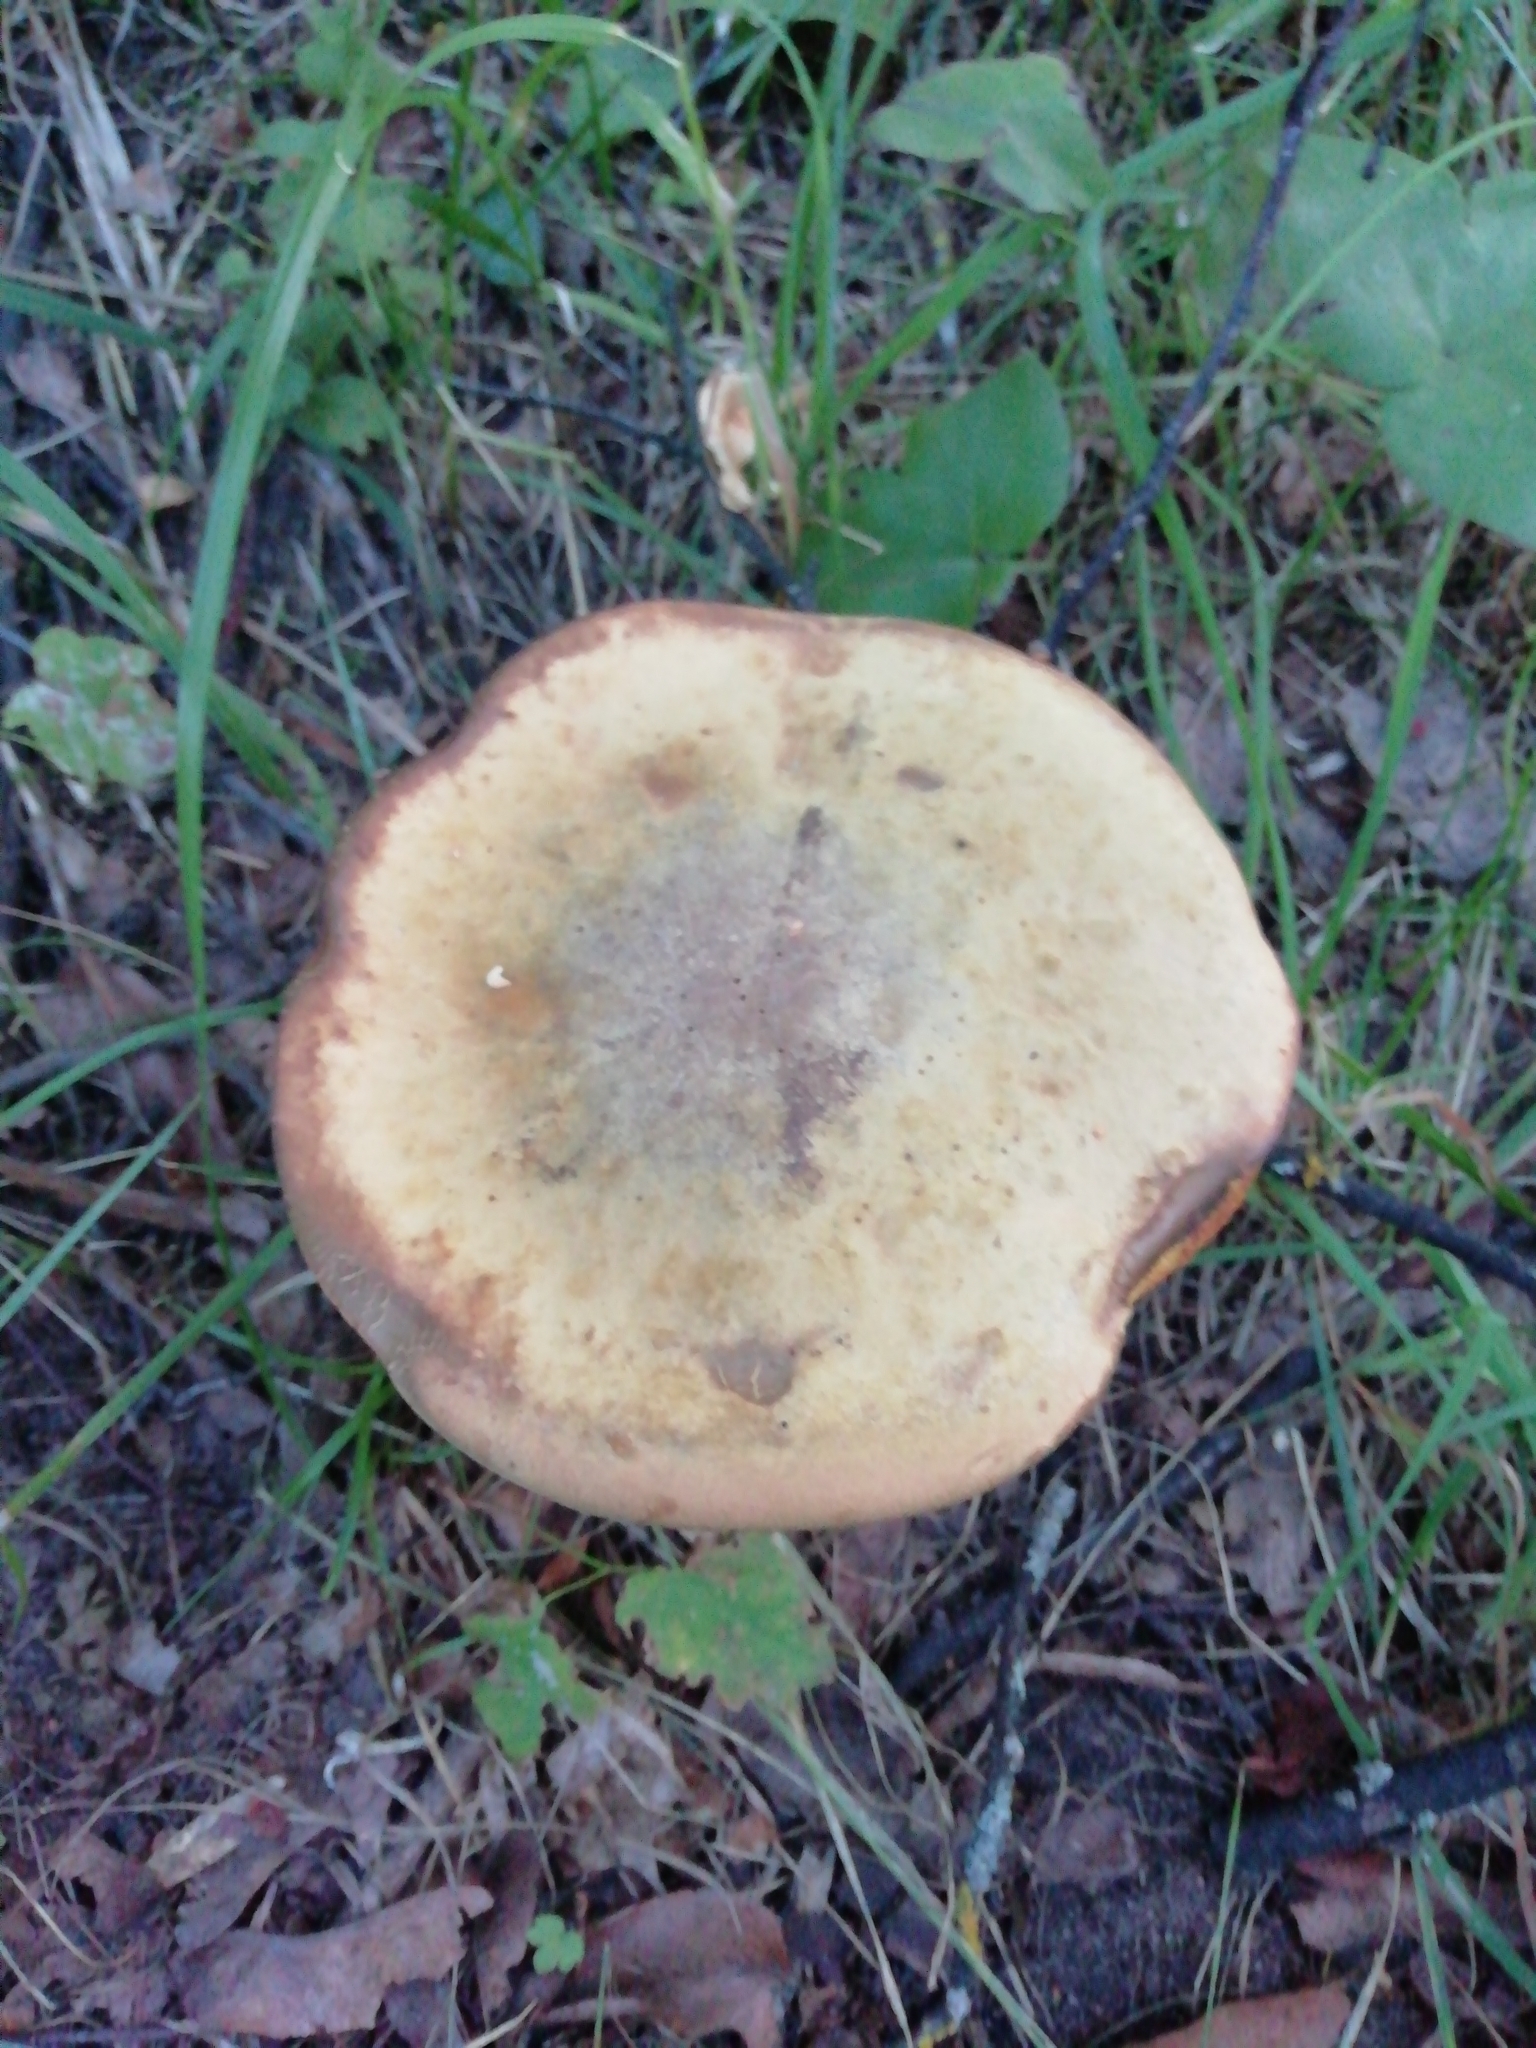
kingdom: Fungi
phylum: Basidiomycota
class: Agaricomycetes
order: Boletales
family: Boletaceae
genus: Suillellus
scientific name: Suillellus luridus
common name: Lurid bolete
